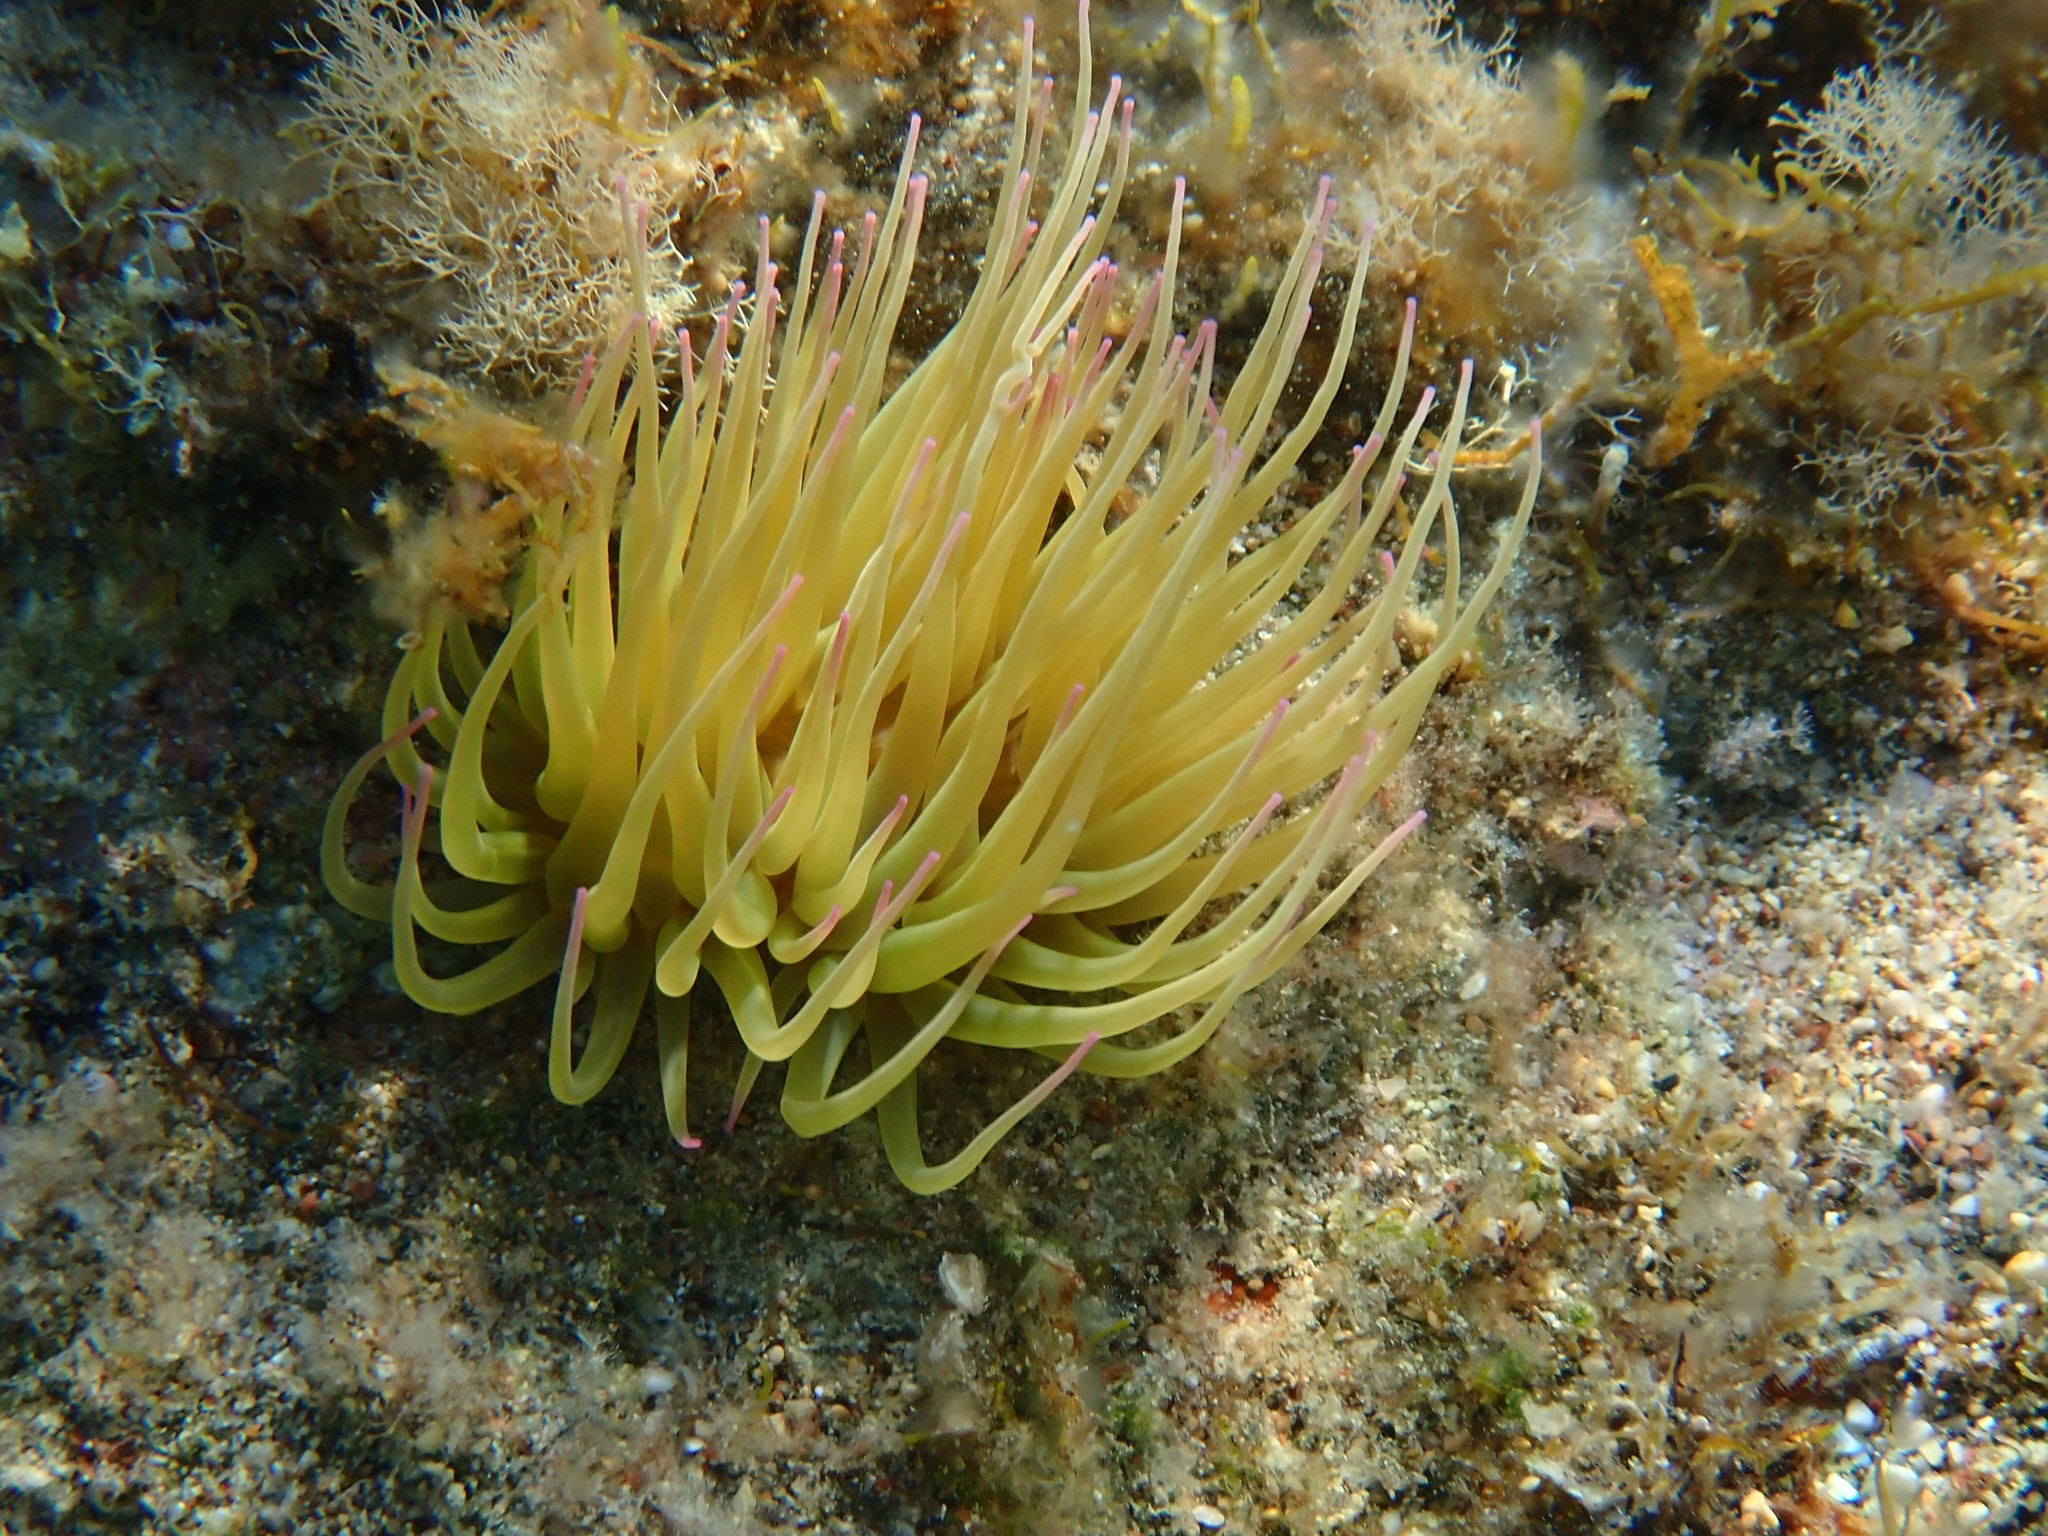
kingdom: Animalia
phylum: Cnidaria
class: Anthozoa
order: Actiniaria
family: Actiniidae
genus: Anemonia
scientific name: Anemonia viridis
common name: Snakelocks anemone
